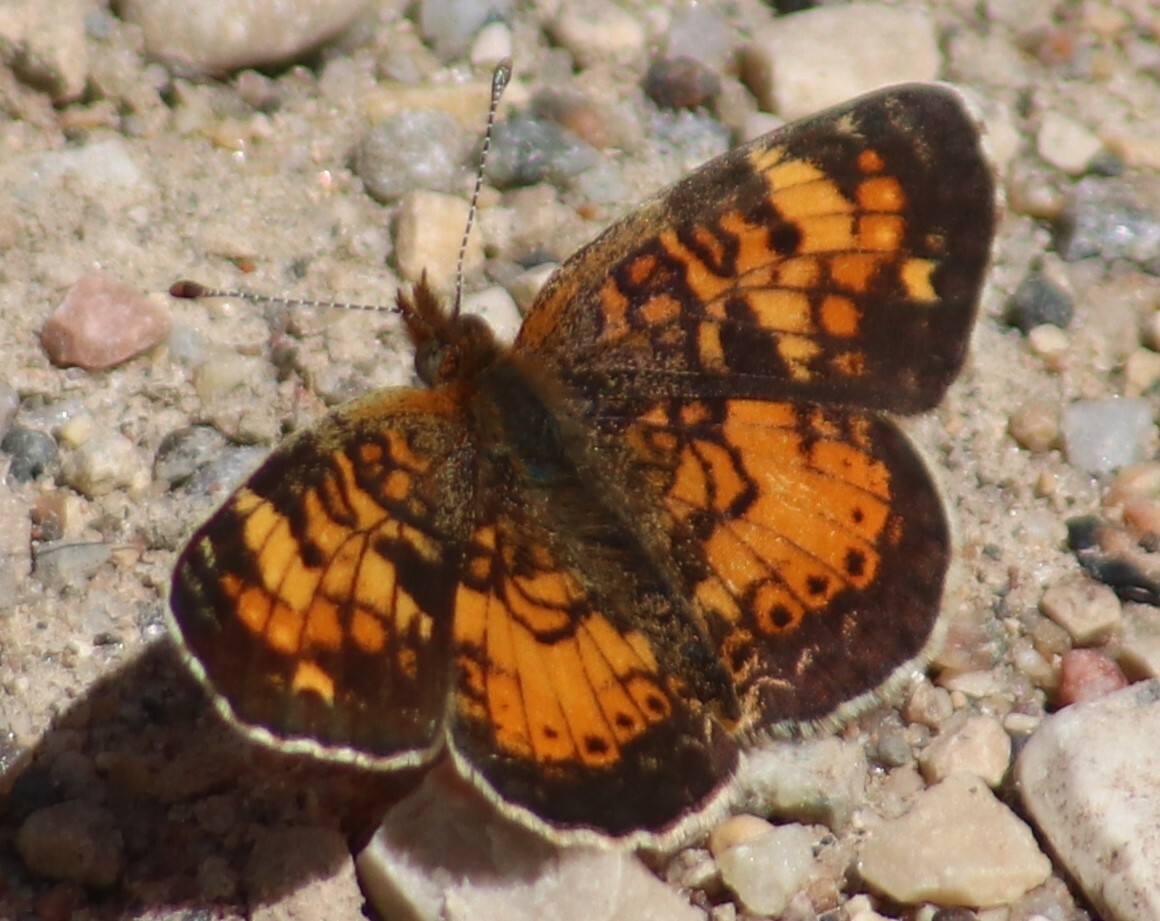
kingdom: Animalia
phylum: Arthropoda
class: Insecta
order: Lepidoptera
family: Nymphalidae
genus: Phyciodes
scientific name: Phyciodes tharos
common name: Pearl crescent
